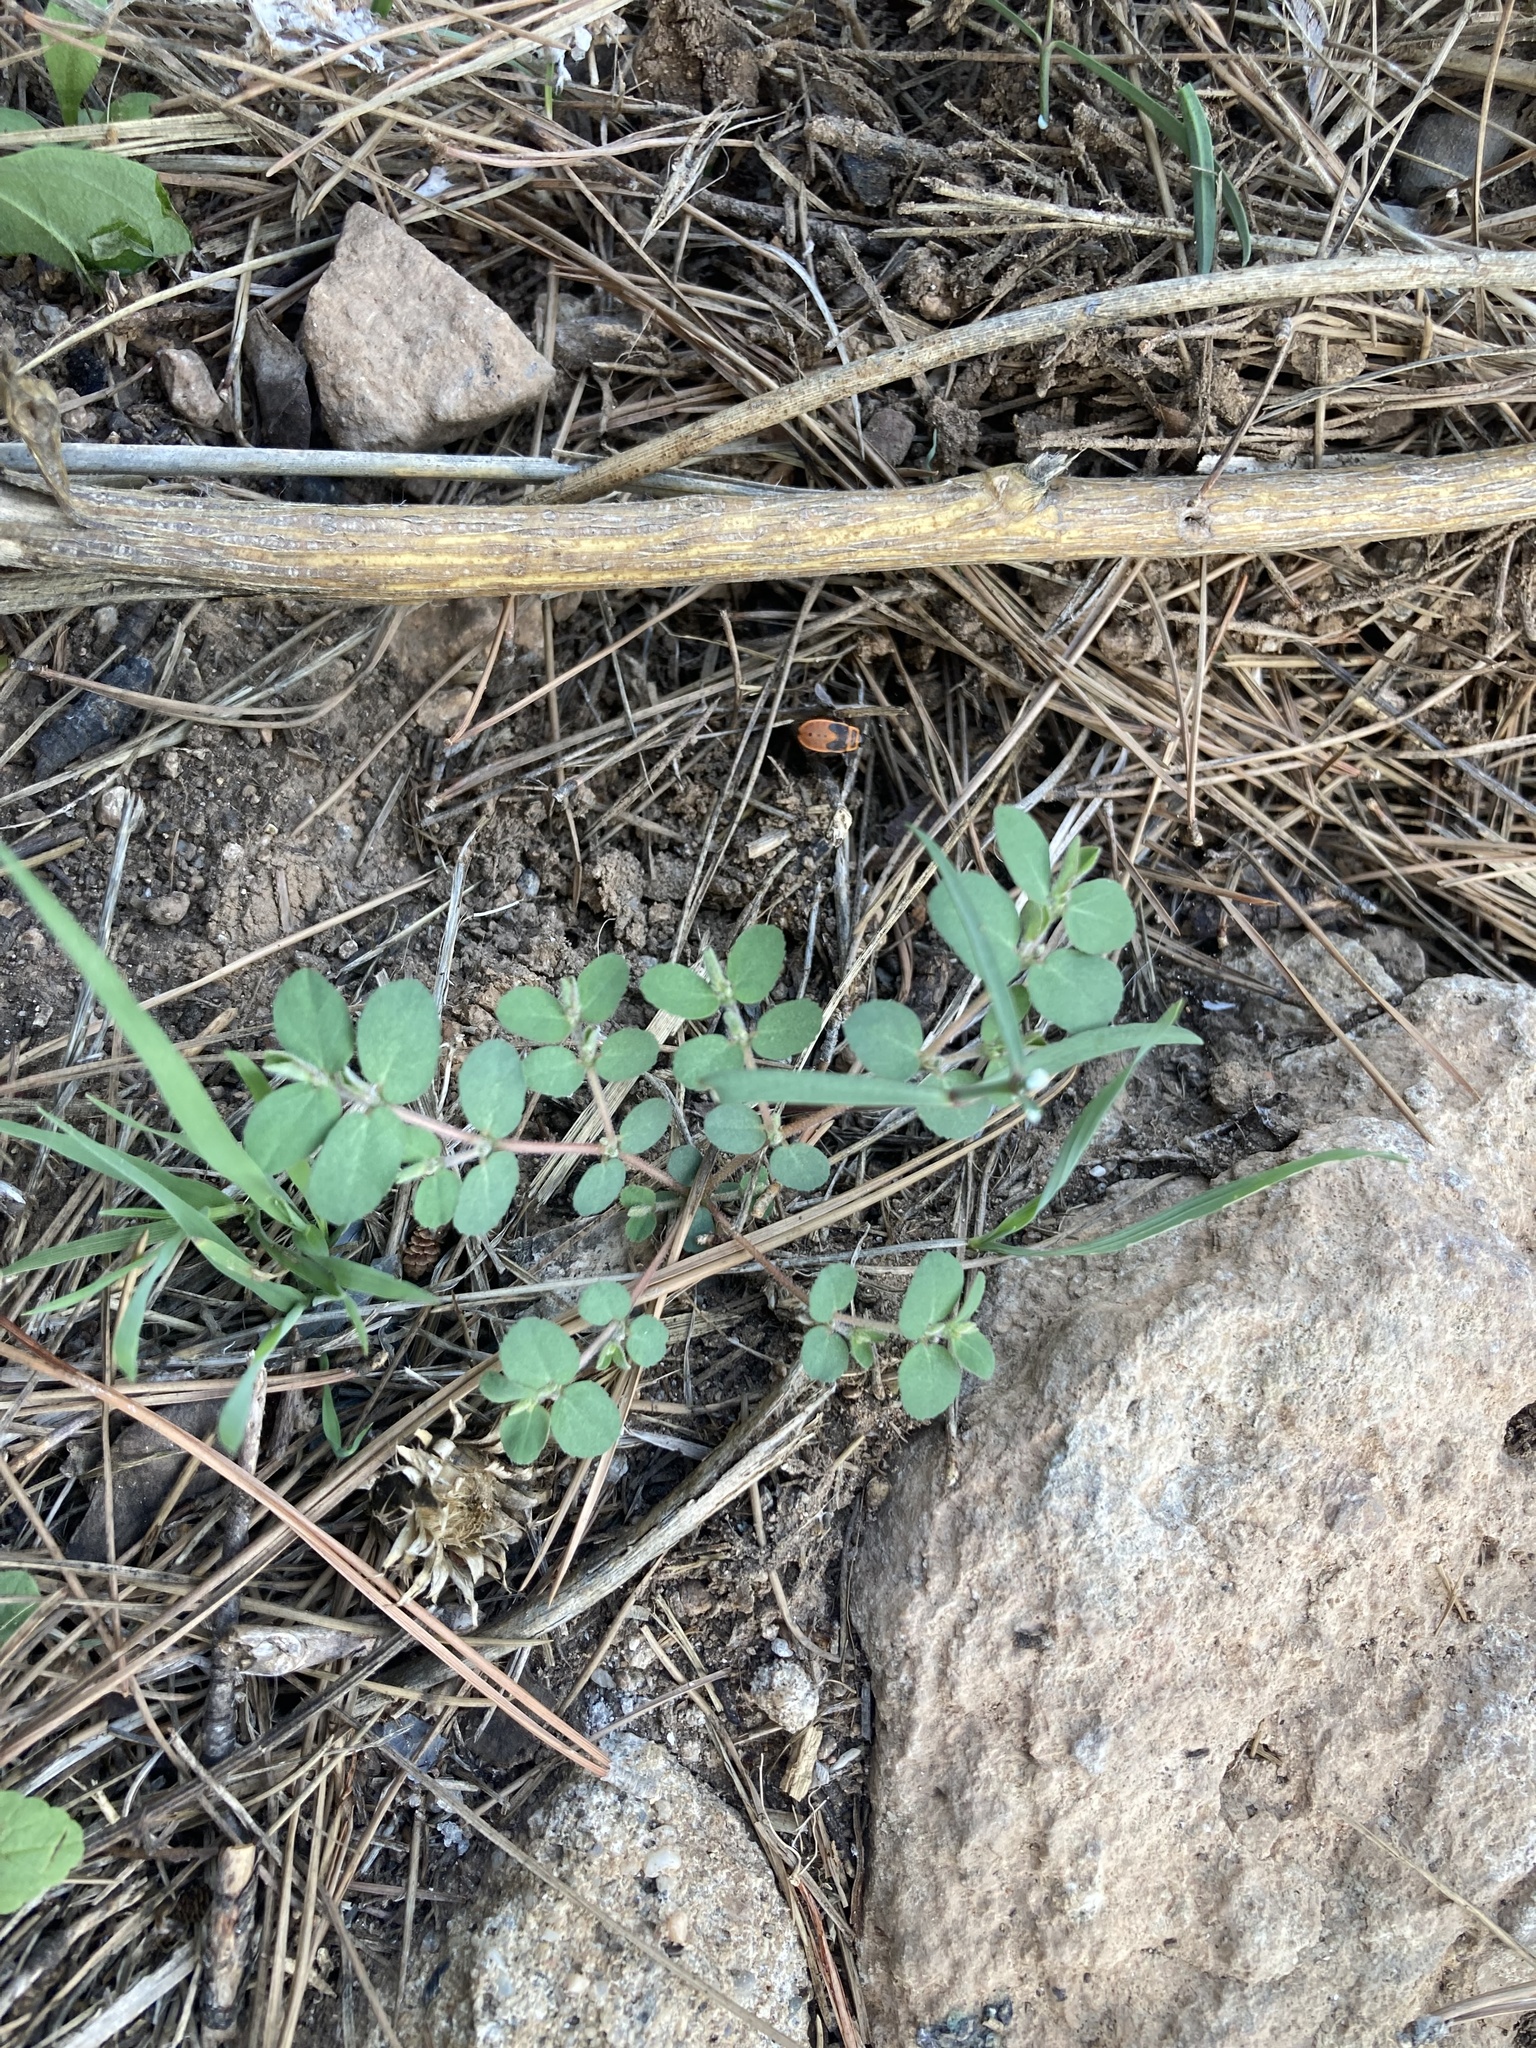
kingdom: Plantae
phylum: Tracheophyta
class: Magnoliopsida
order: Malpighiales
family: Euphorbiaceae
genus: Euphorbia
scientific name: Euphorbia prostrata
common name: Prostrate sandmat
